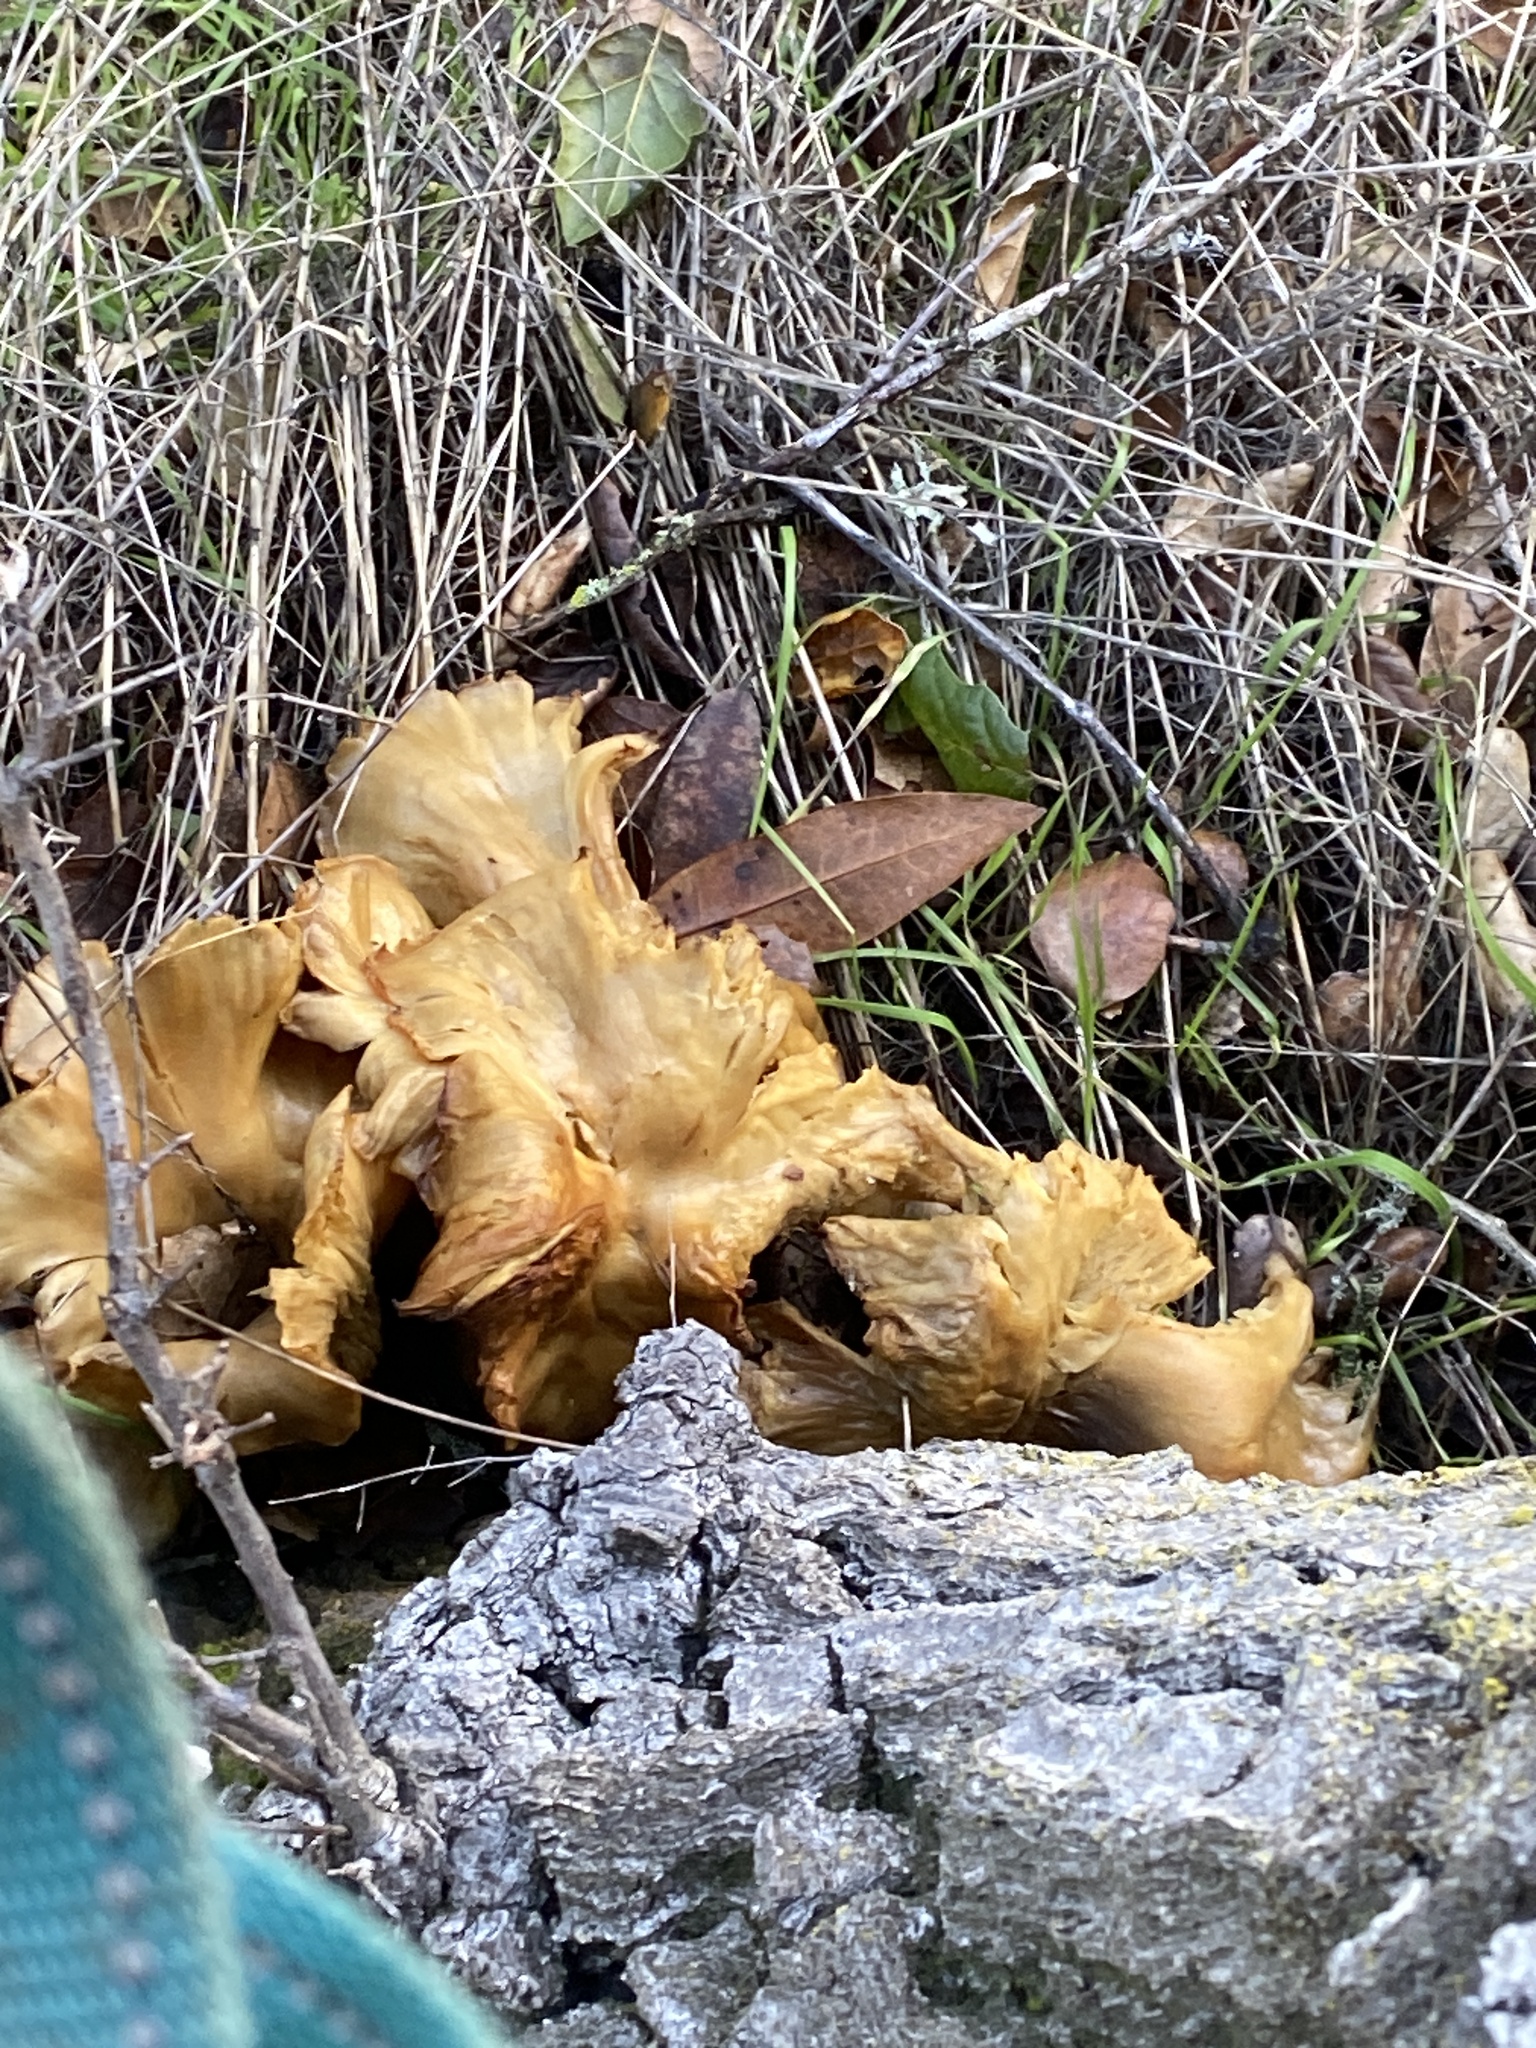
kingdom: Fungi
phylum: Basidiomycota
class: Agaricomycetes
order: Agaricales
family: Omphalotaceae
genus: Omphalotus
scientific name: Omphalotus olivascens
